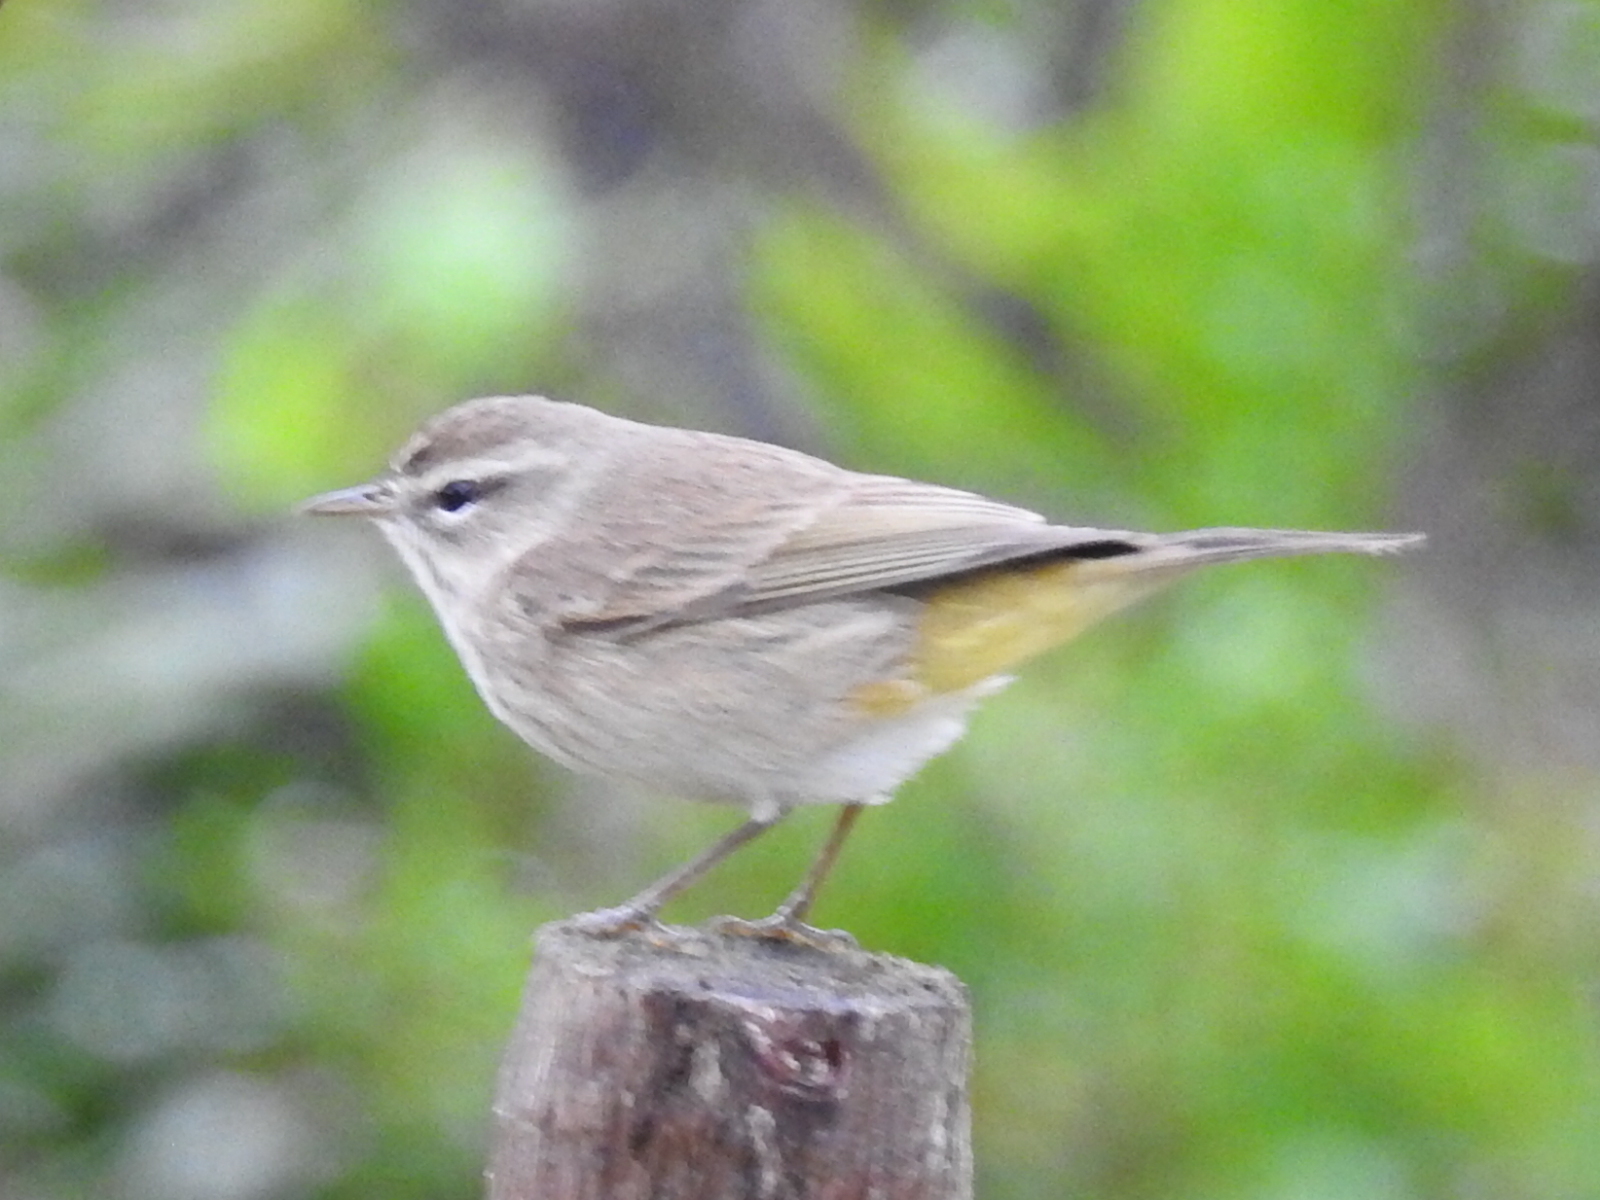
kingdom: Animalia
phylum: Chordata
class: Aves
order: Passeriformes
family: Parulidae
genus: Setophaga
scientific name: Setophaga palmarum
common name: Palm warbler
